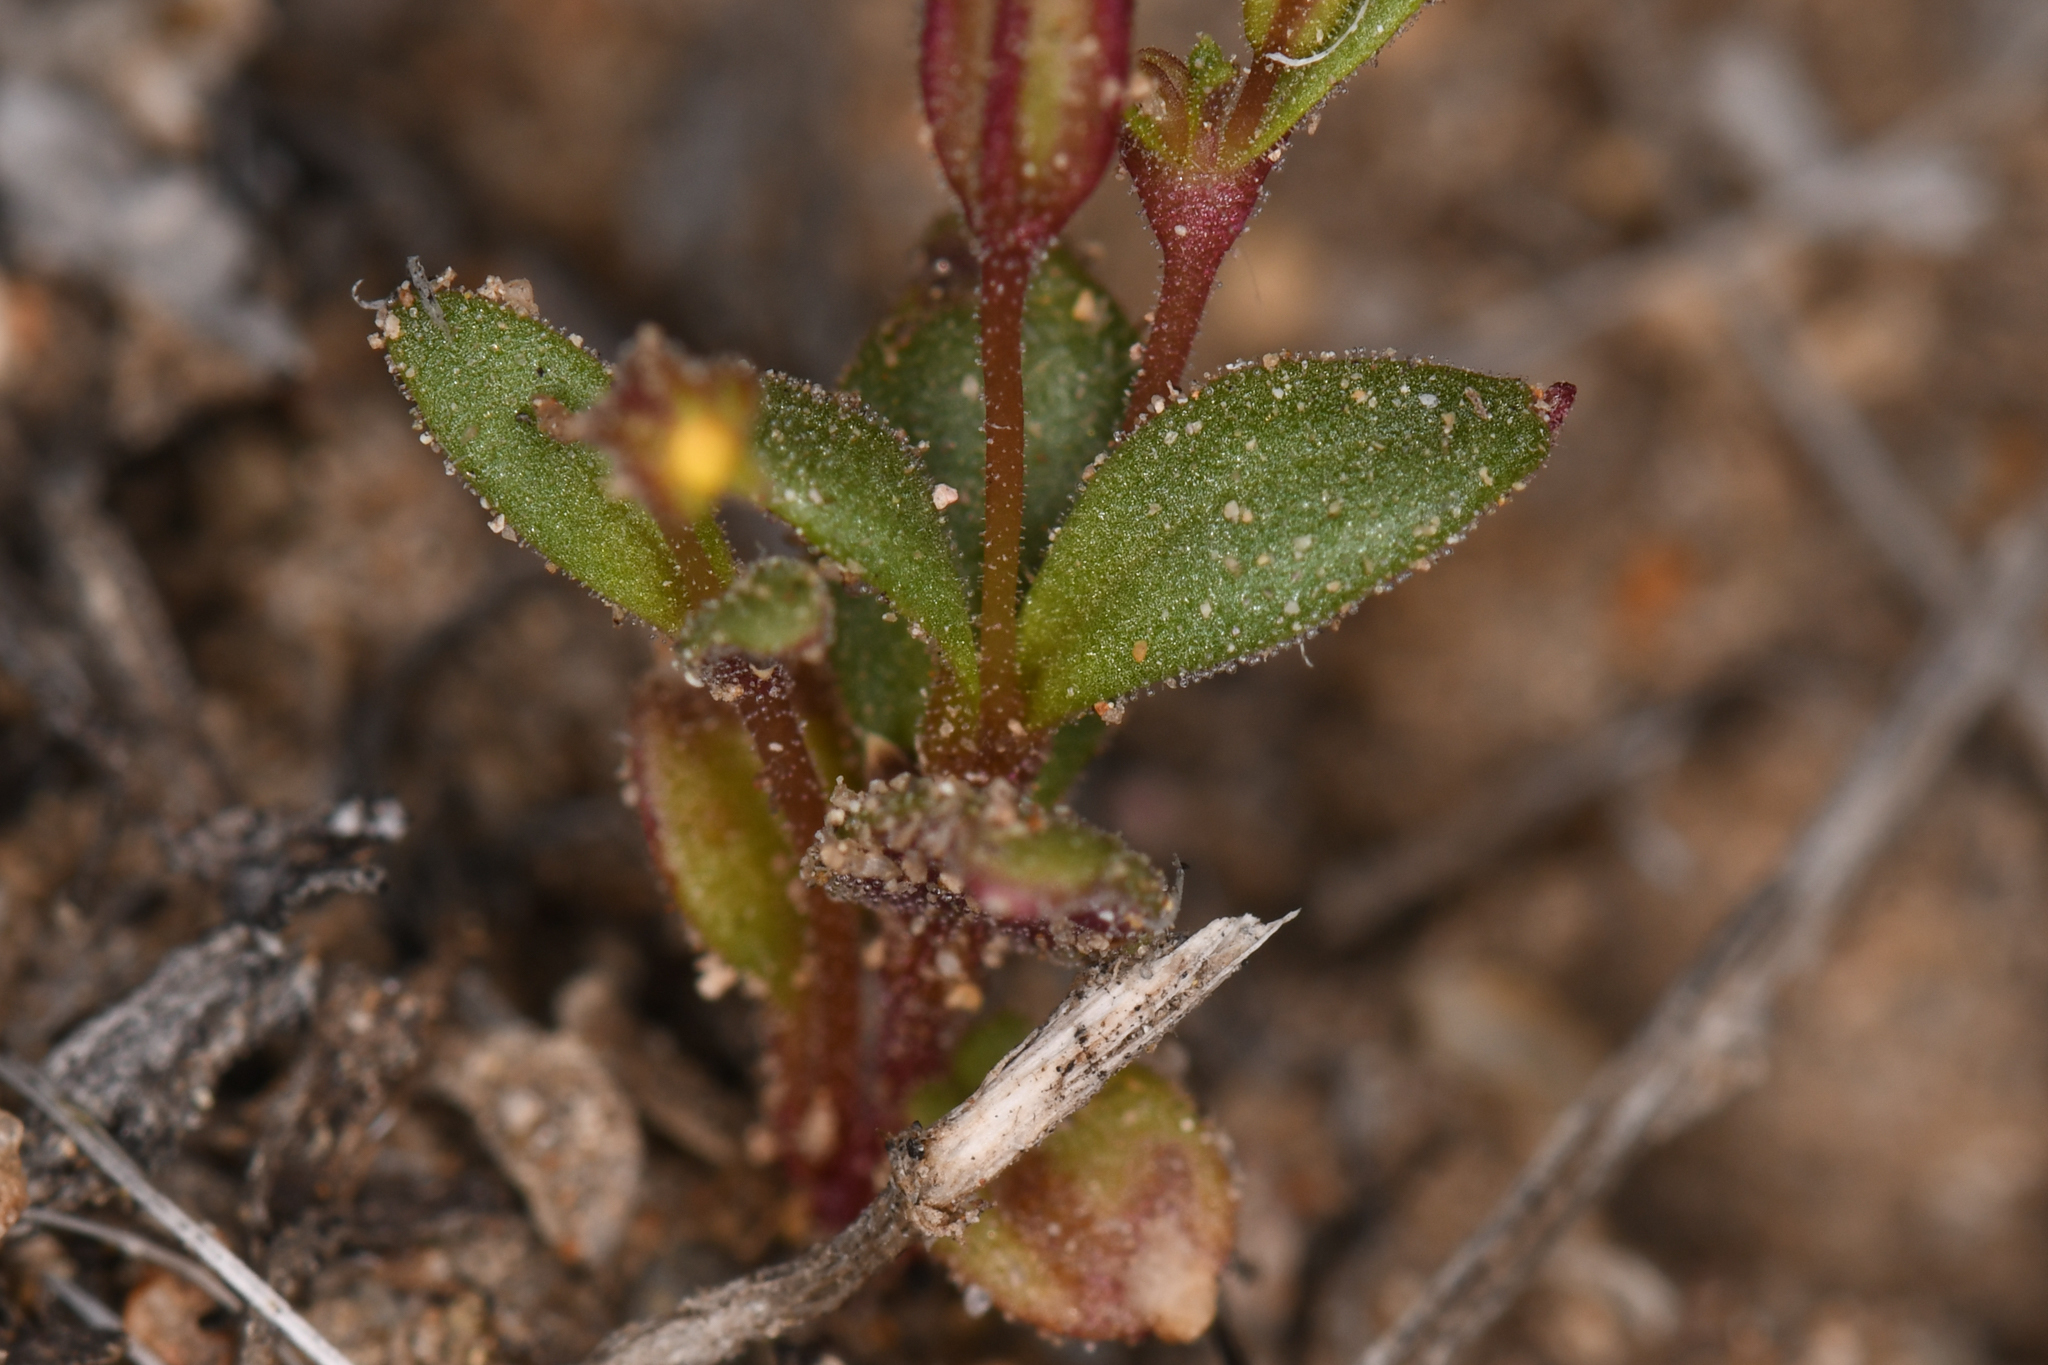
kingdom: Plantae
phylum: Tracheophyta
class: Magnoliopsida
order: Lamiales
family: Phrymaceae
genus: Erythranthe
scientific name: Erythranthe suksdorfii
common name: Suksdorf's monkeyflower
